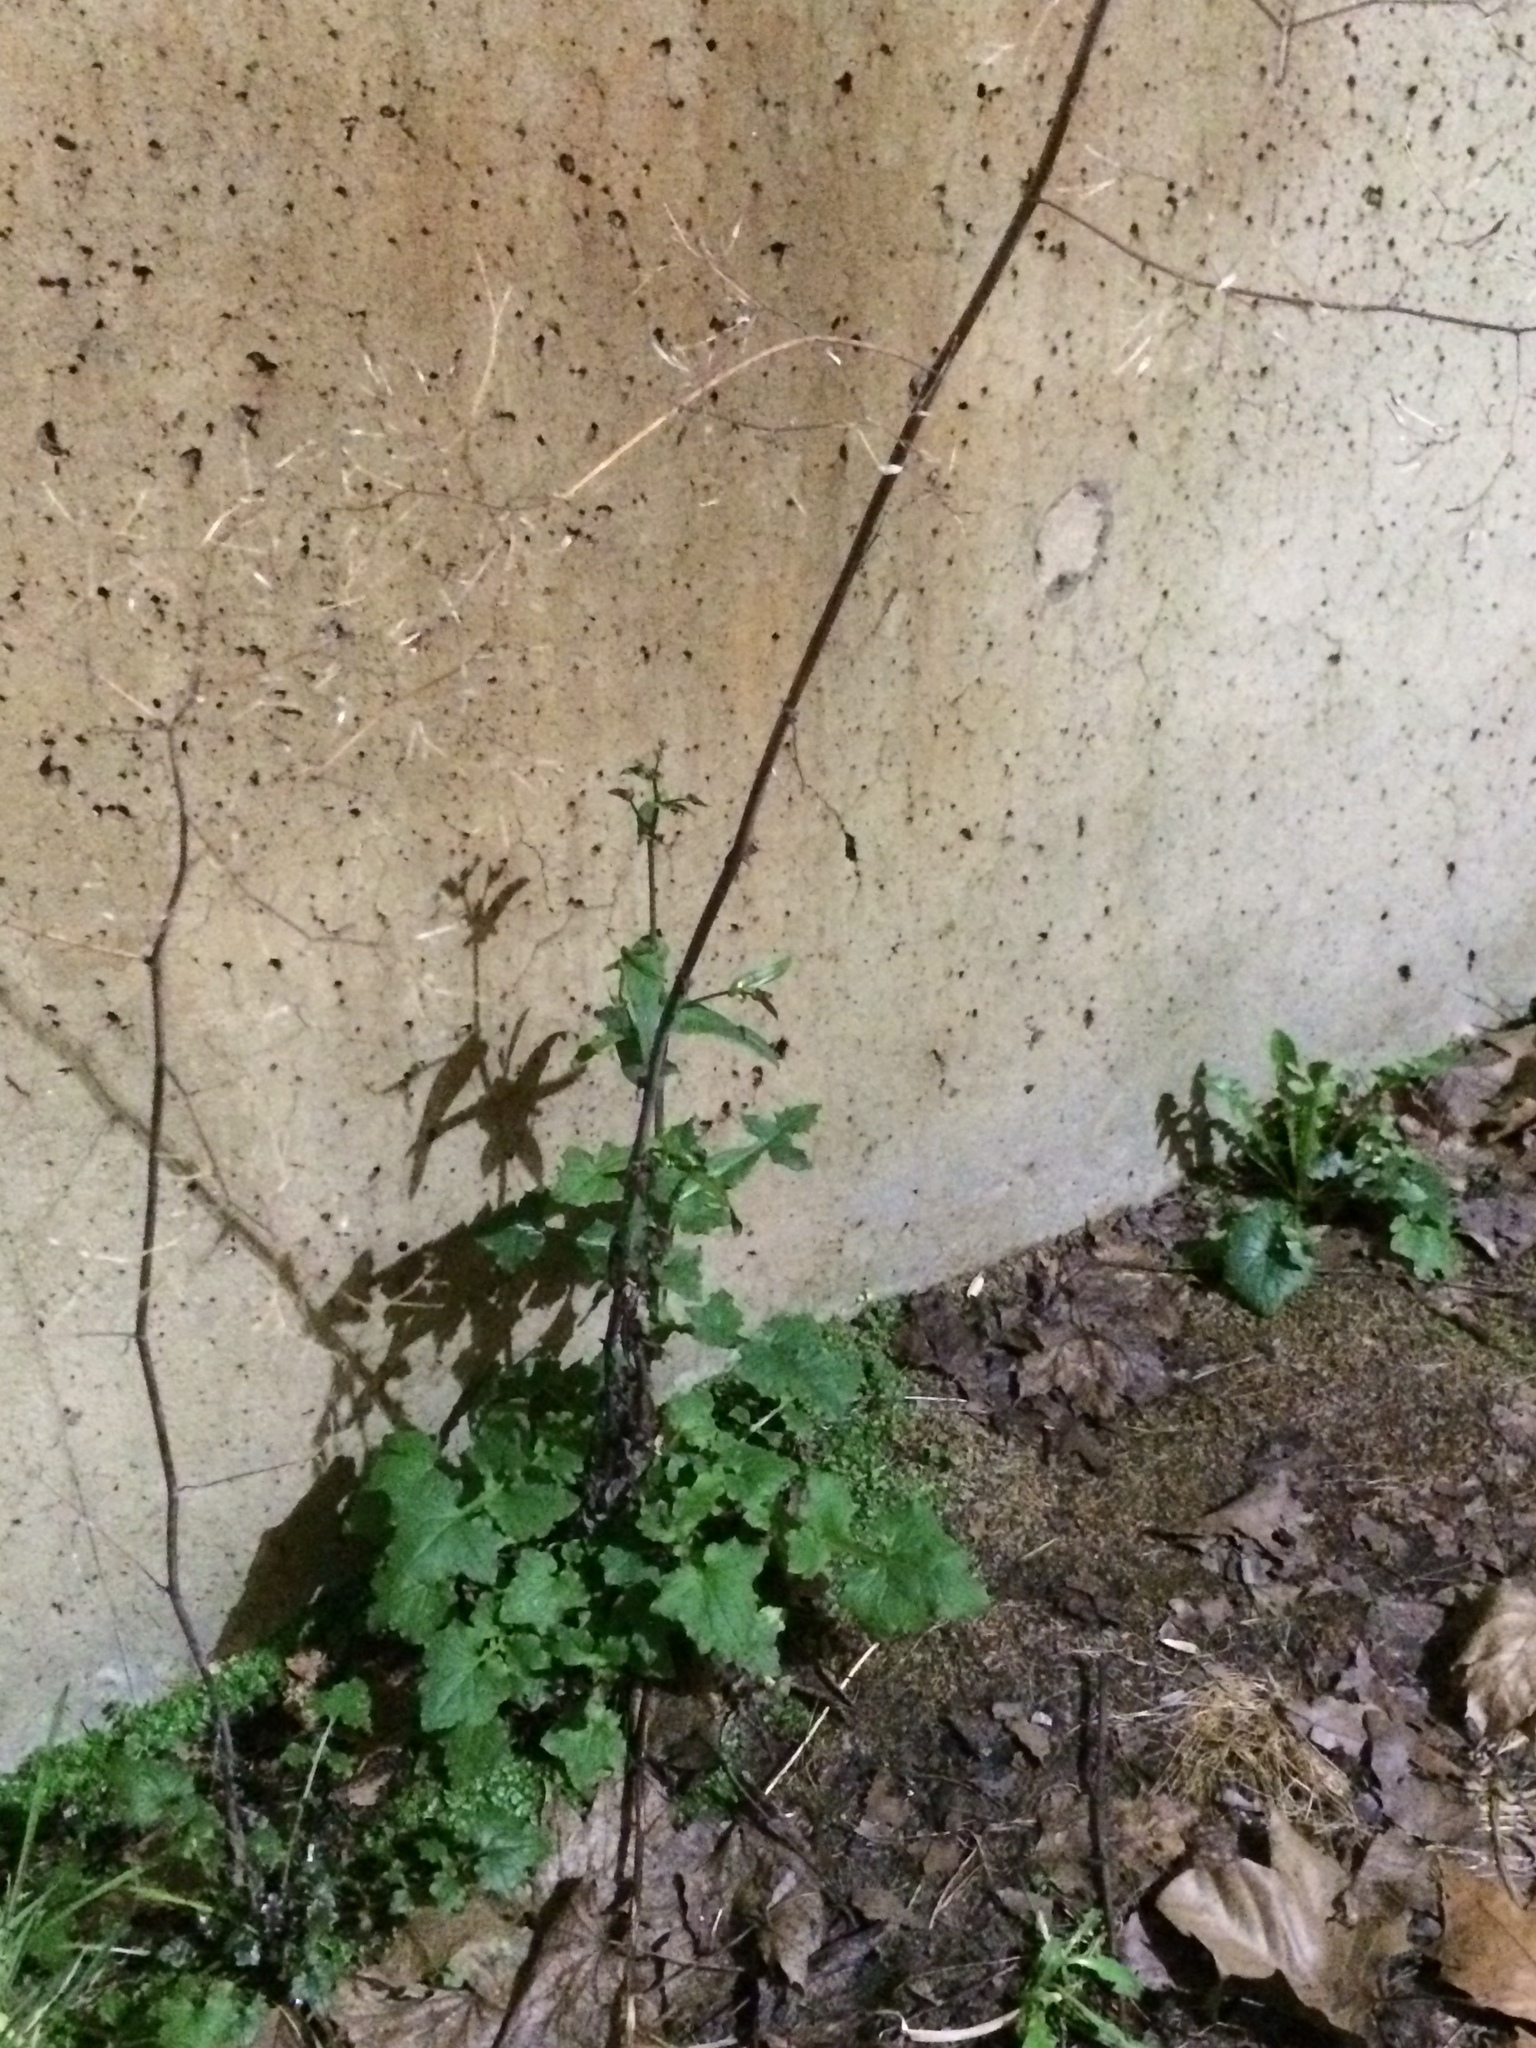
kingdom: Plantae
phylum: Tracheophyta
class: Magnoliopsida
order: Asterales
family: Asteraceae
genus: Mycelis
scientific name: Mycelis muralis
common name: Wall lettuce
